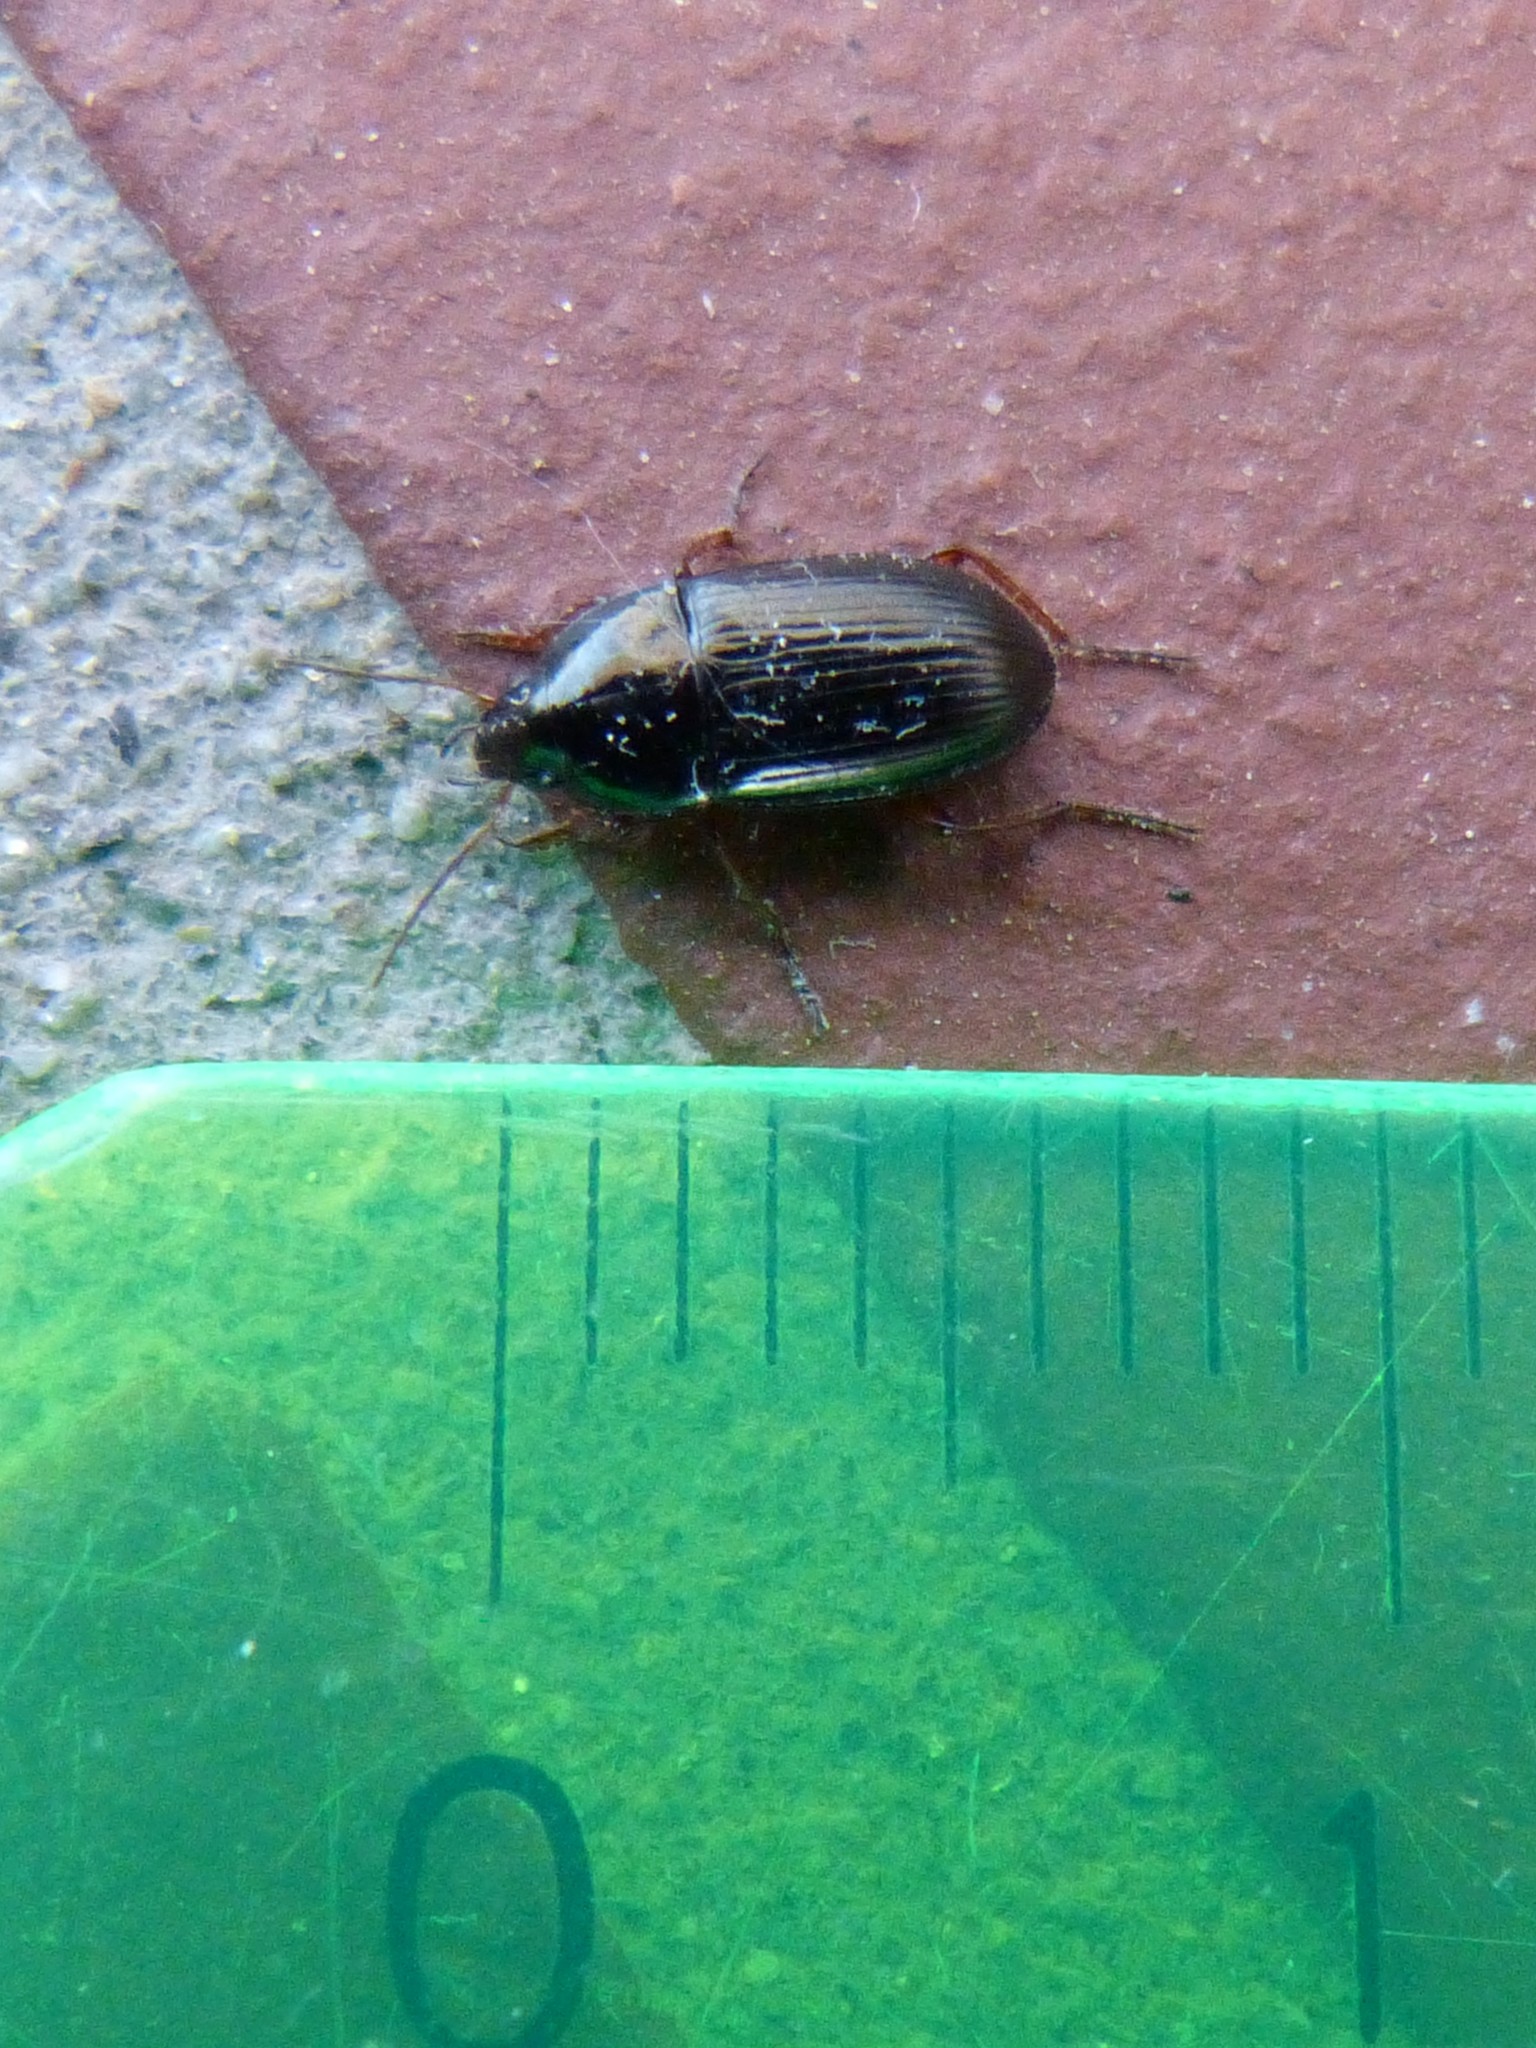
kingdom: Animalia
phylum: Arthropoda
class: Insecta
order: Coleoptera
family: Carabidae
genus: Amara
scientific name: Amara familiaris
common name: Familiar harp round beetle
